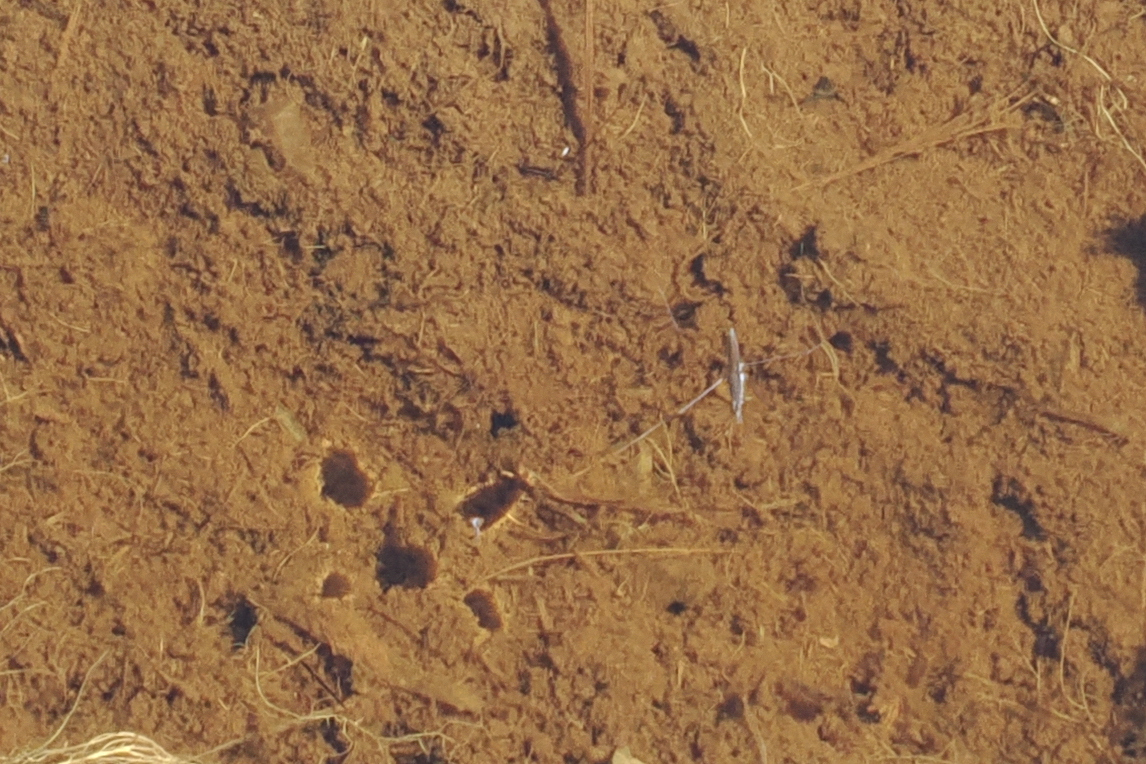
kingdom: Animalia
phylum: Arthropoda
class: Insecta
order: Hemiptera
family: Gerridae
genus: Limnoporus
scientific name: Limnoporus
